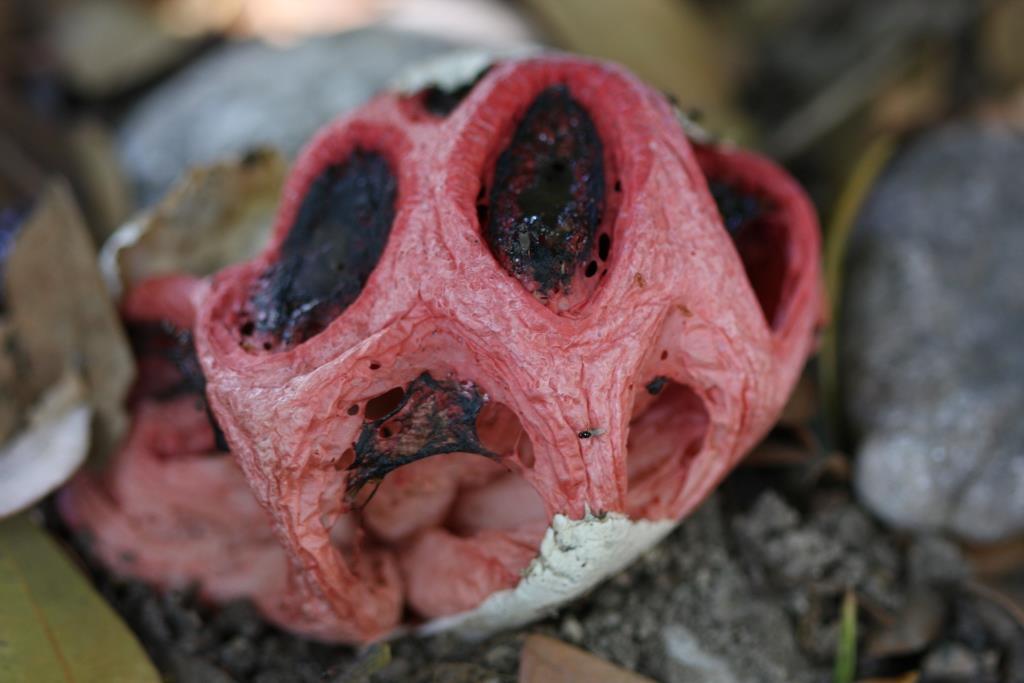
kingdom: Fungi
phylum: Basidiomycota
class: Agaricomycetes
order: Phallales
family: Phallaceae
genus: Clathrus
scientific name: Clathrus crispatus
